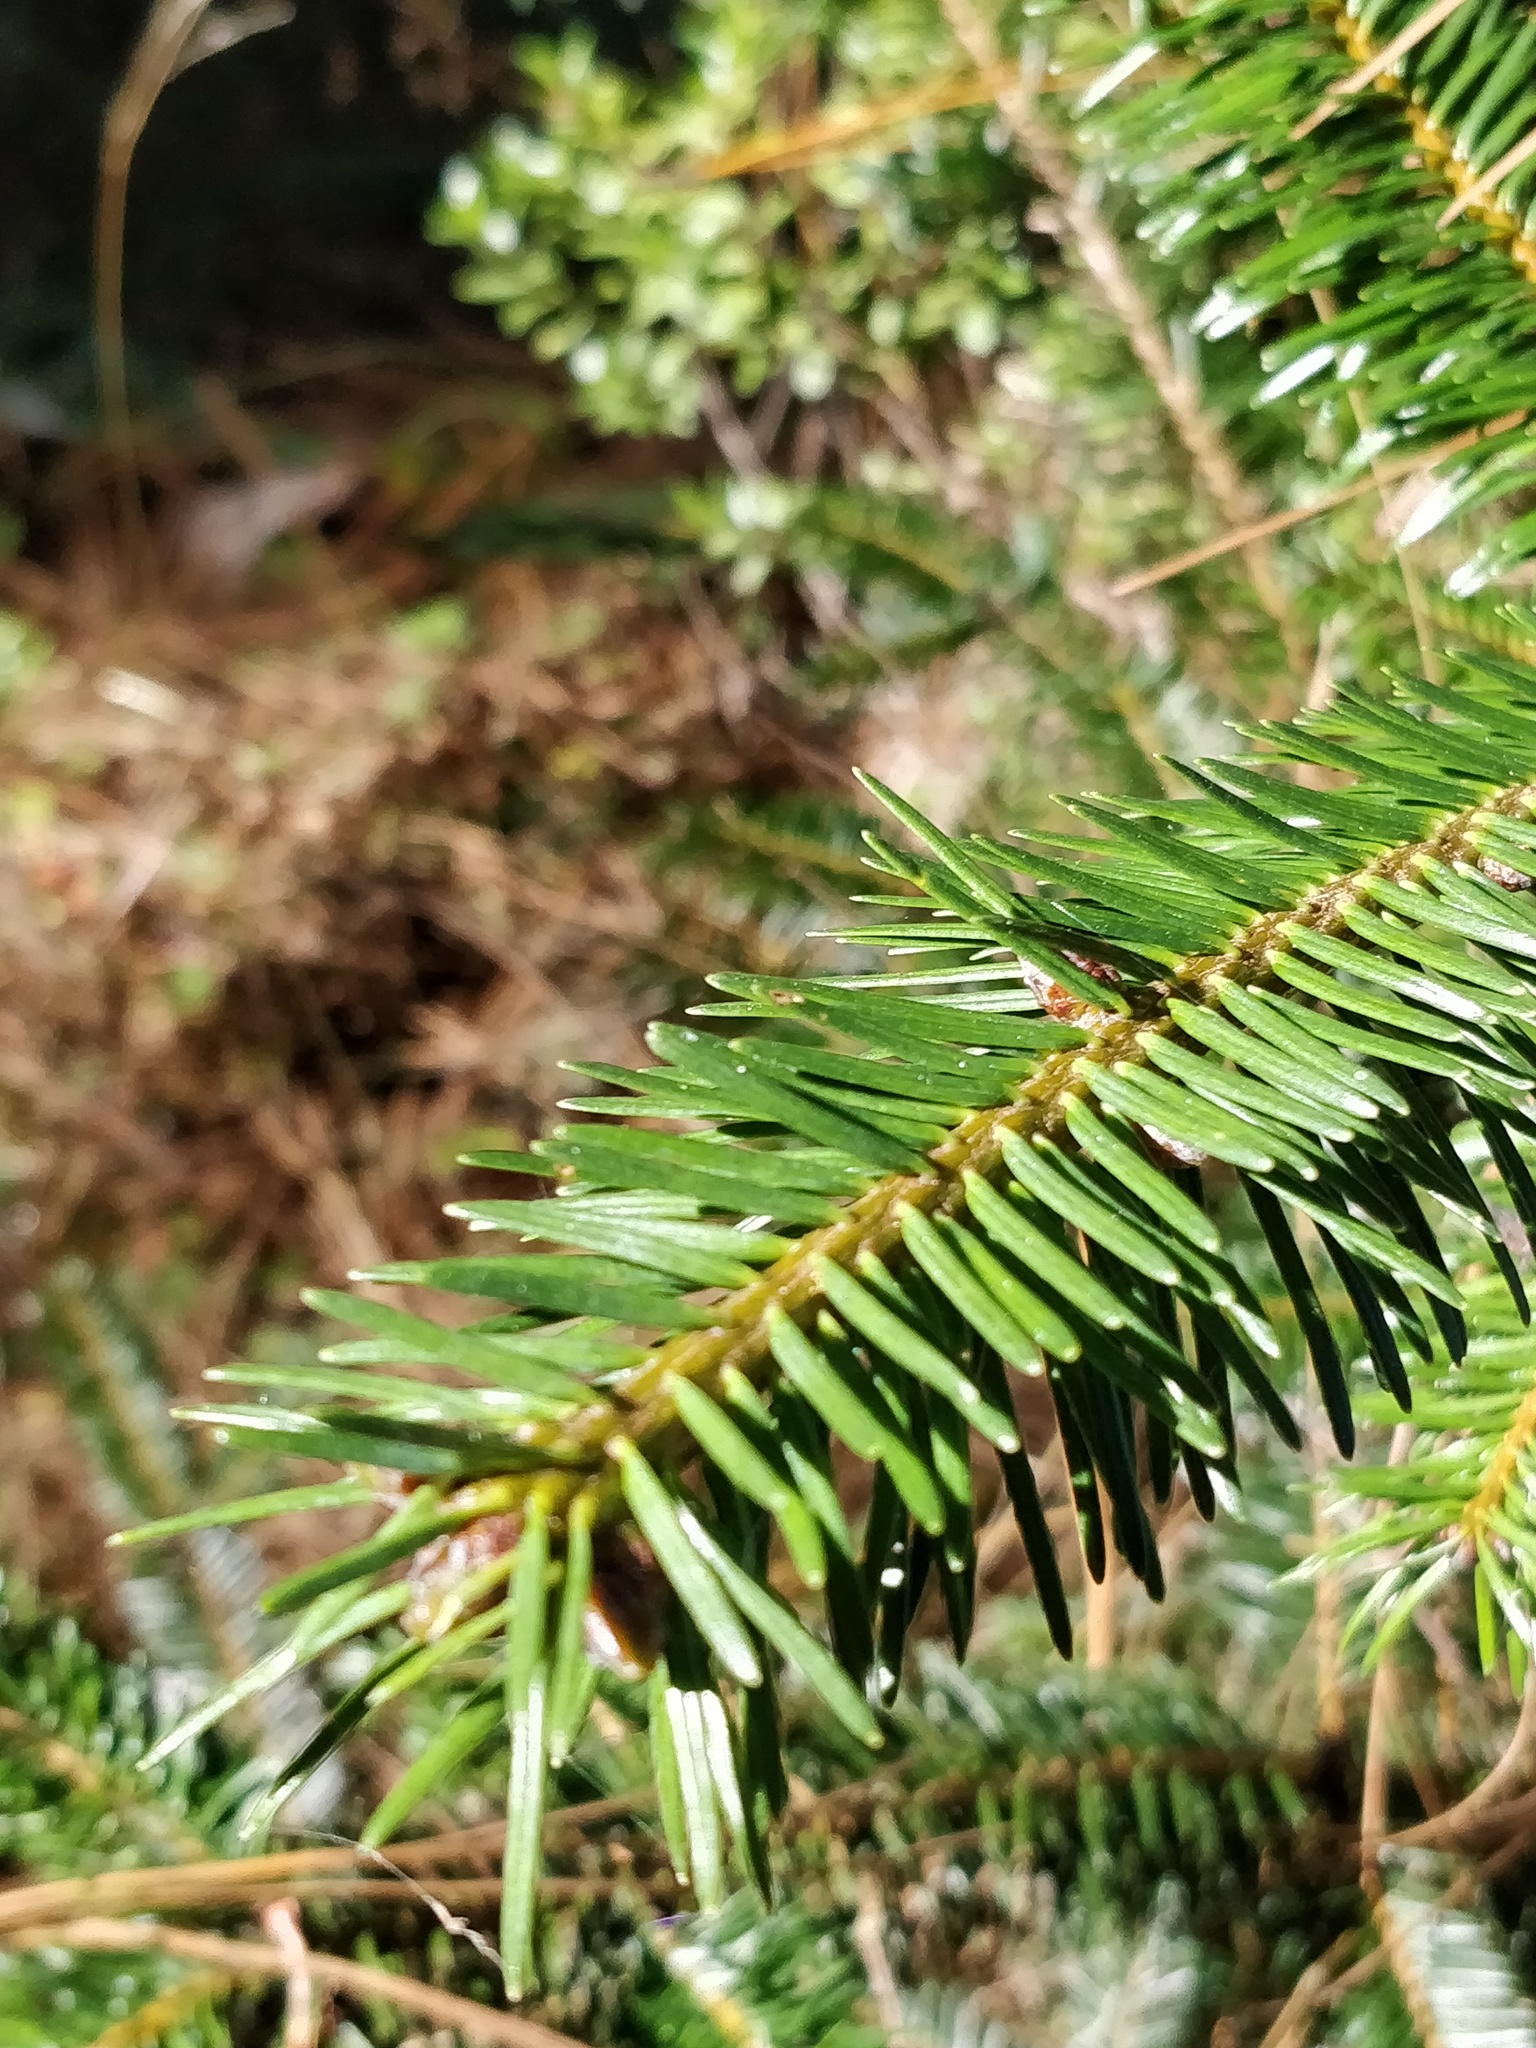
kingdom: Plantae
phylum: Tracheophyta
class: Pinopsida
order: Pinales
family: Pinaceae
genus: Abies
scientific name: Abies hickelii
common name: Hickel's fir
